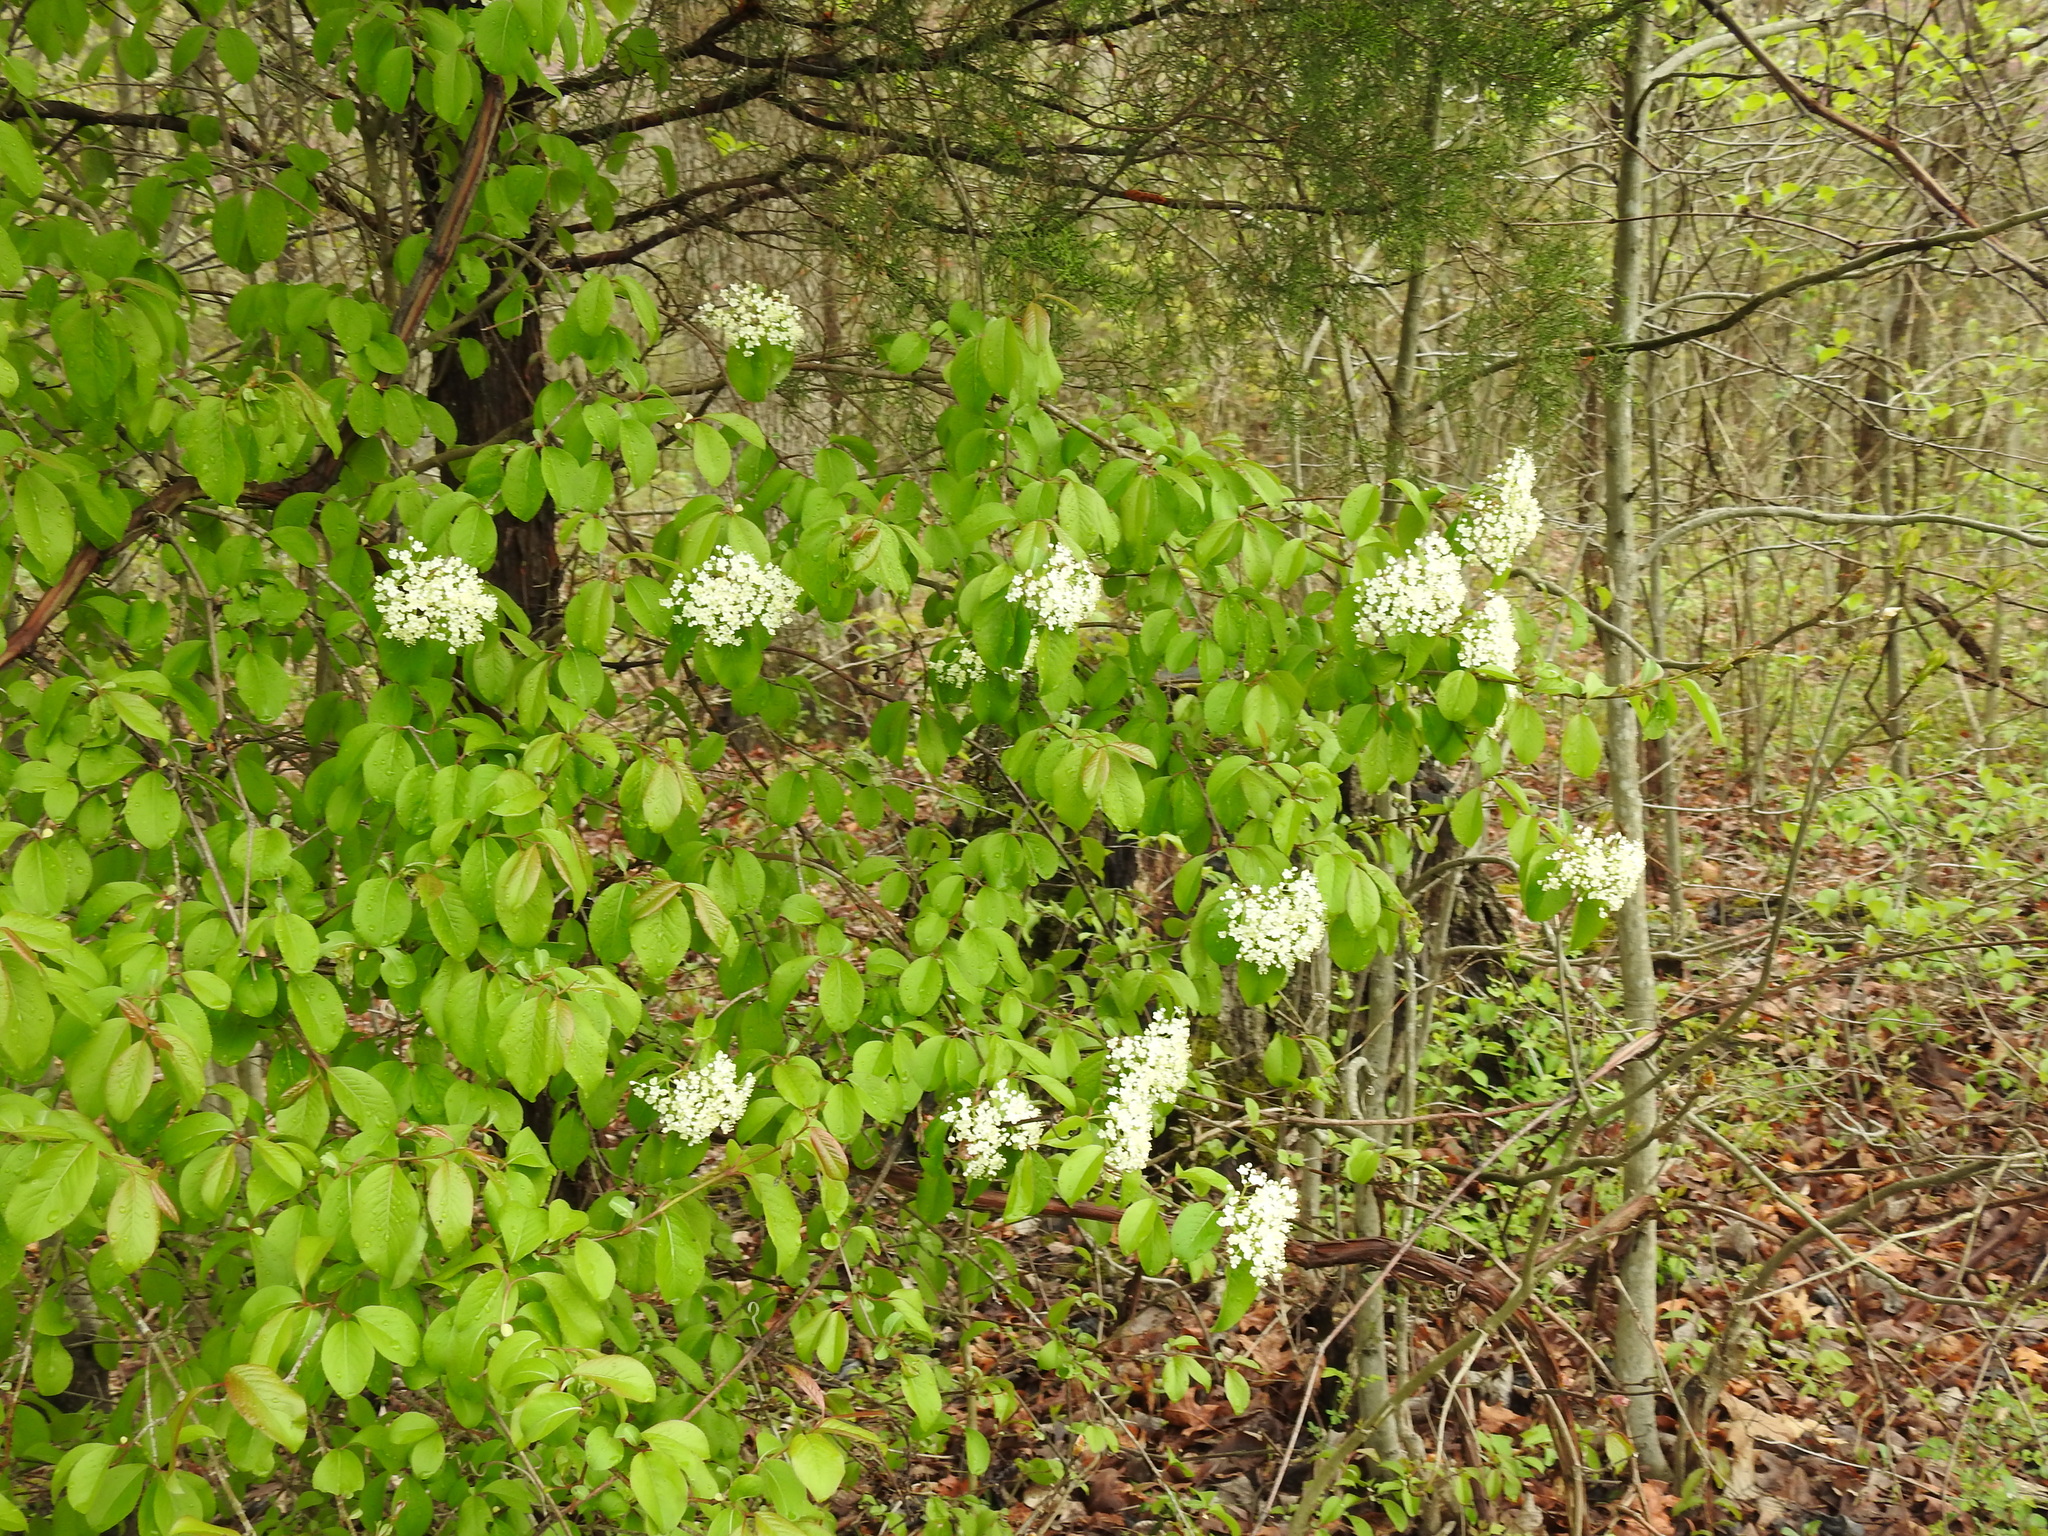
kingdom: Plantae
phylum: Tracheophyta
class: Magnoliopsida
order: Dipsacales
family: Viburnaceae
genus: Viburnum
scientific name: Viburnum prunifolium
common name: Black haw
